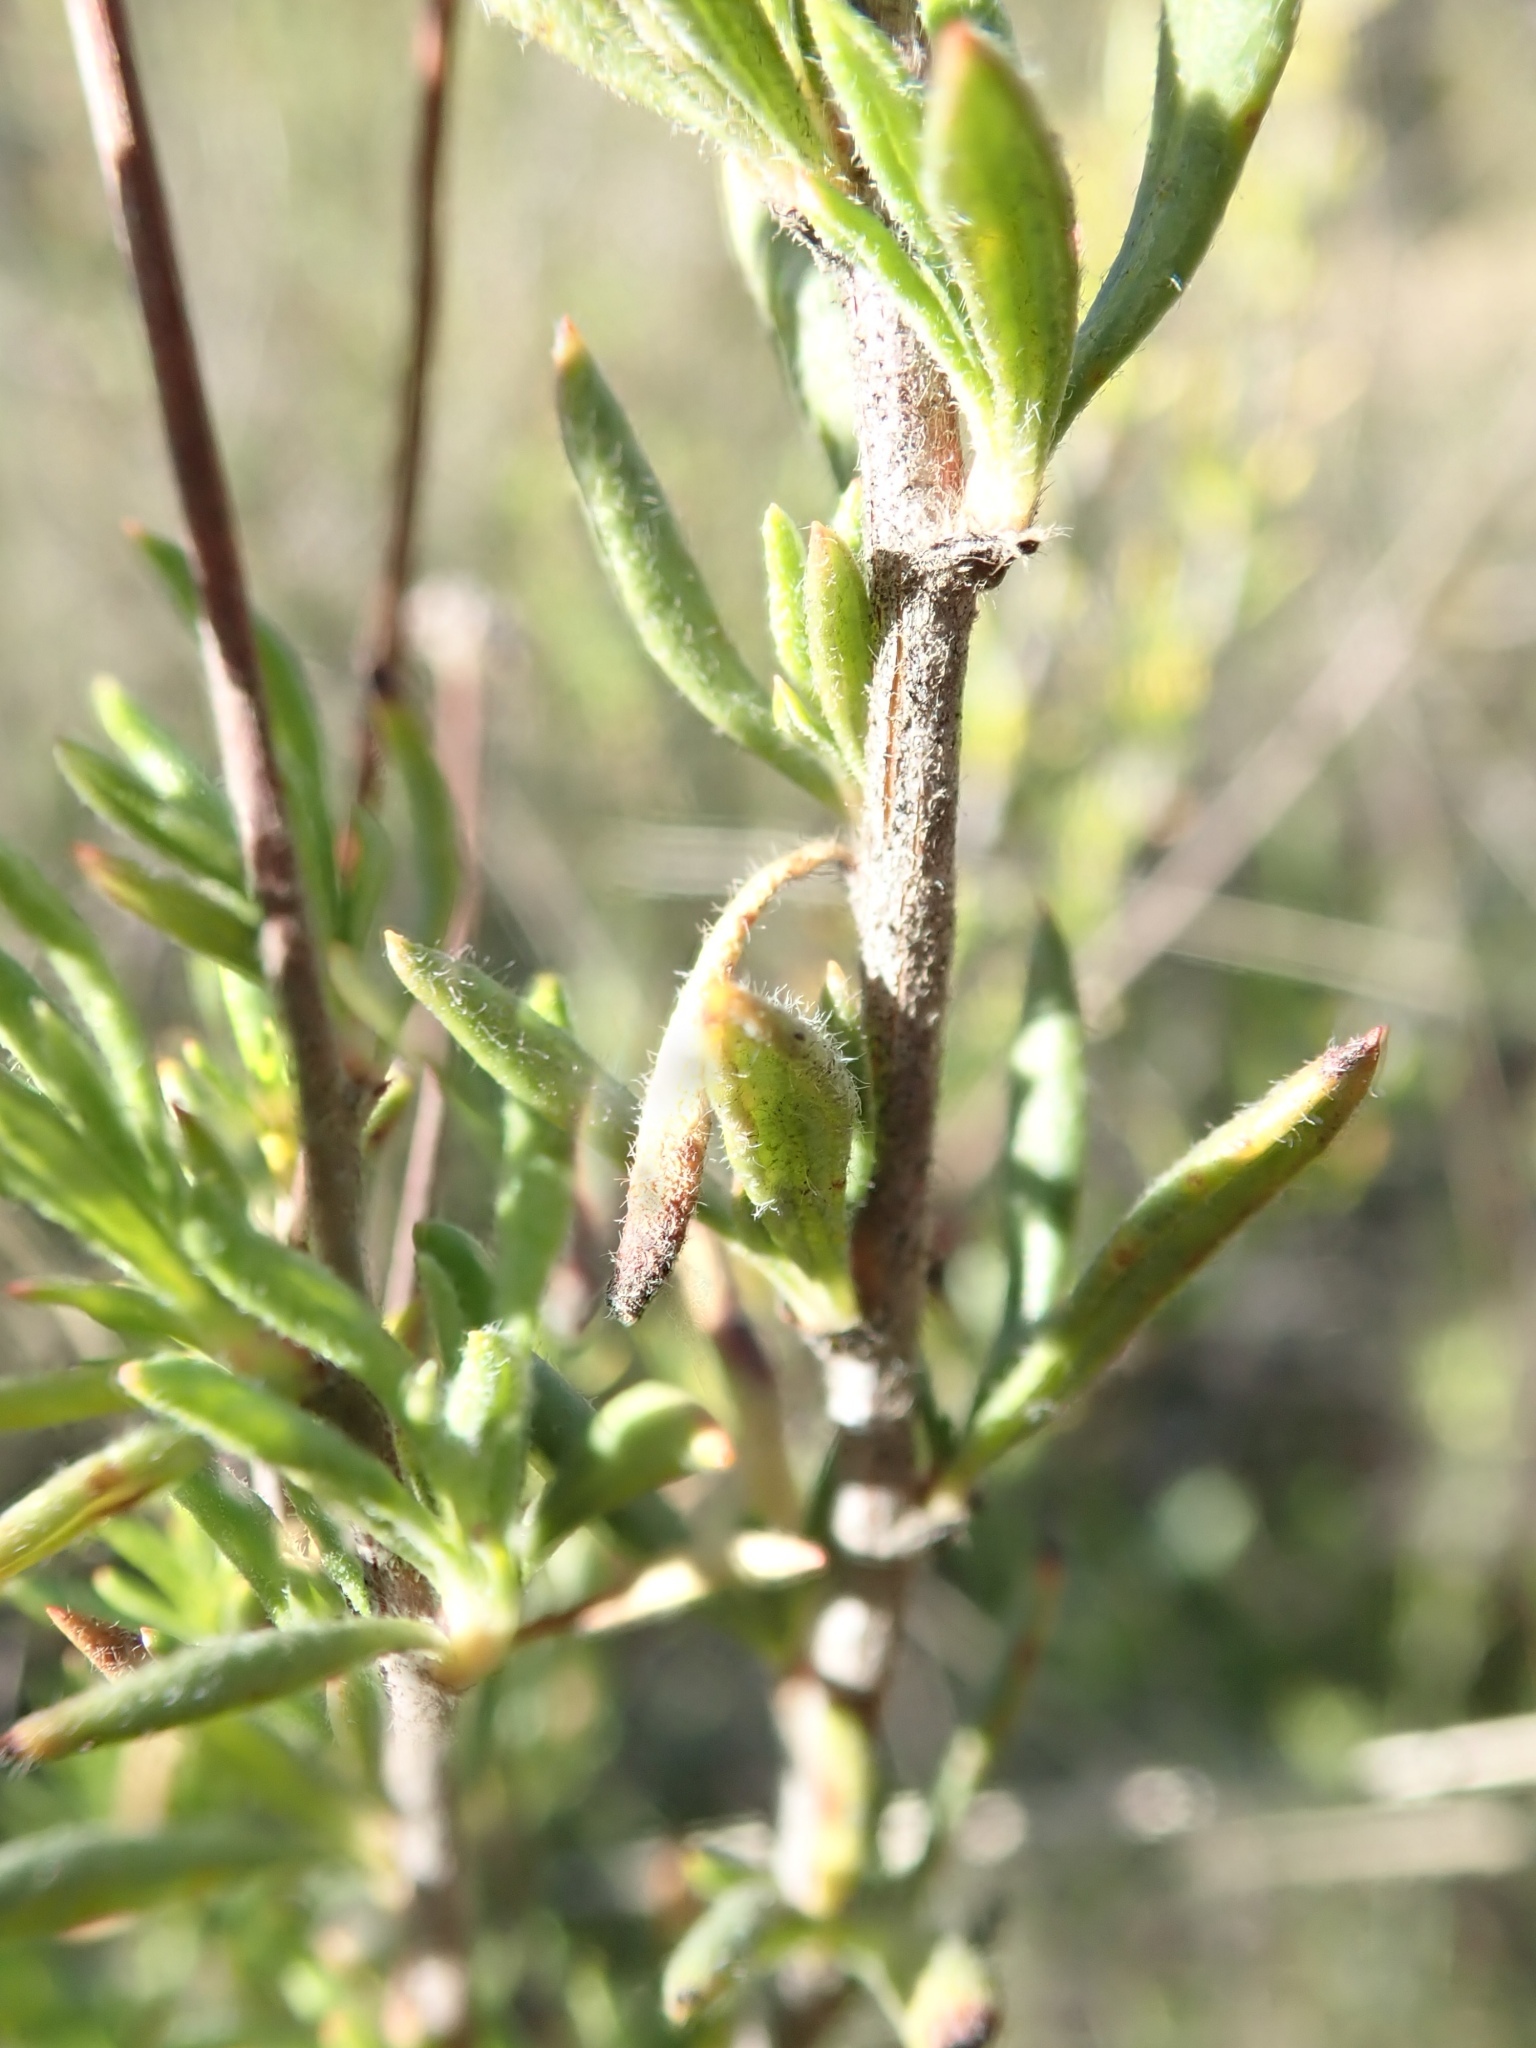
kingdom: Plantae
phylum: Tracheophyta
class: Magnoliopsida
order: Caryophyllales
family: Polygonaceae
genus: Eriogonum
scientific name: Eriogonum fasciculatum
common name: California wild buckwheat
